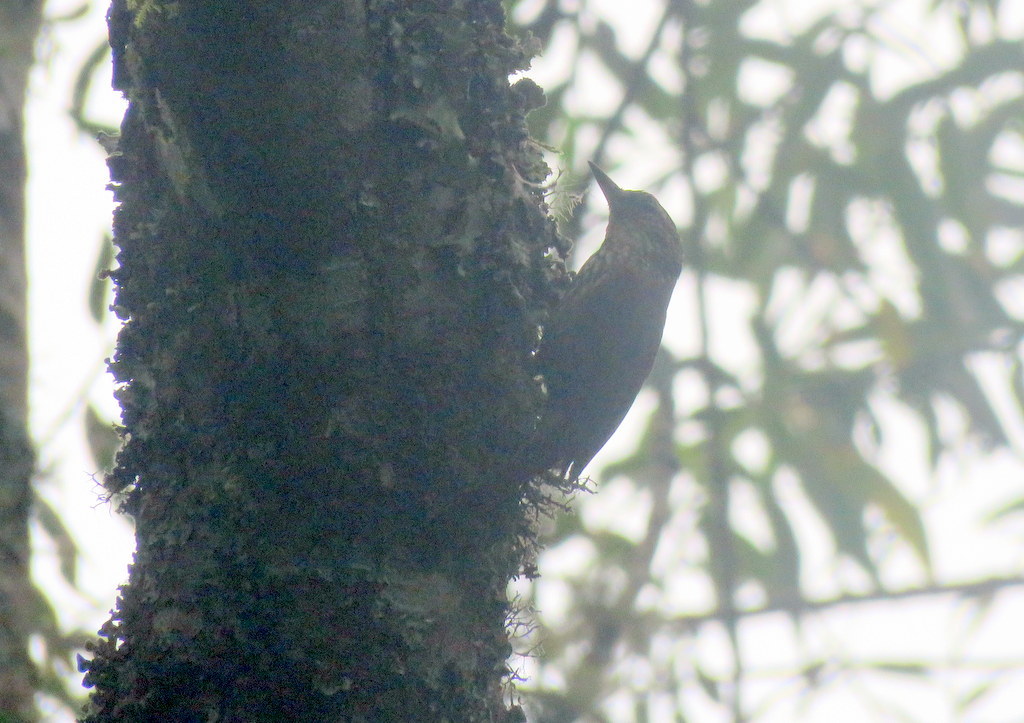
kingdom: Animalia
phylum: Chordata
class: Aves
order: Passeriformes
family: Furnariidae
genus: Syndactyla
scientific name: Syndactyla rufosuperciliata
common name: Buff-browed foliage-gleaner
